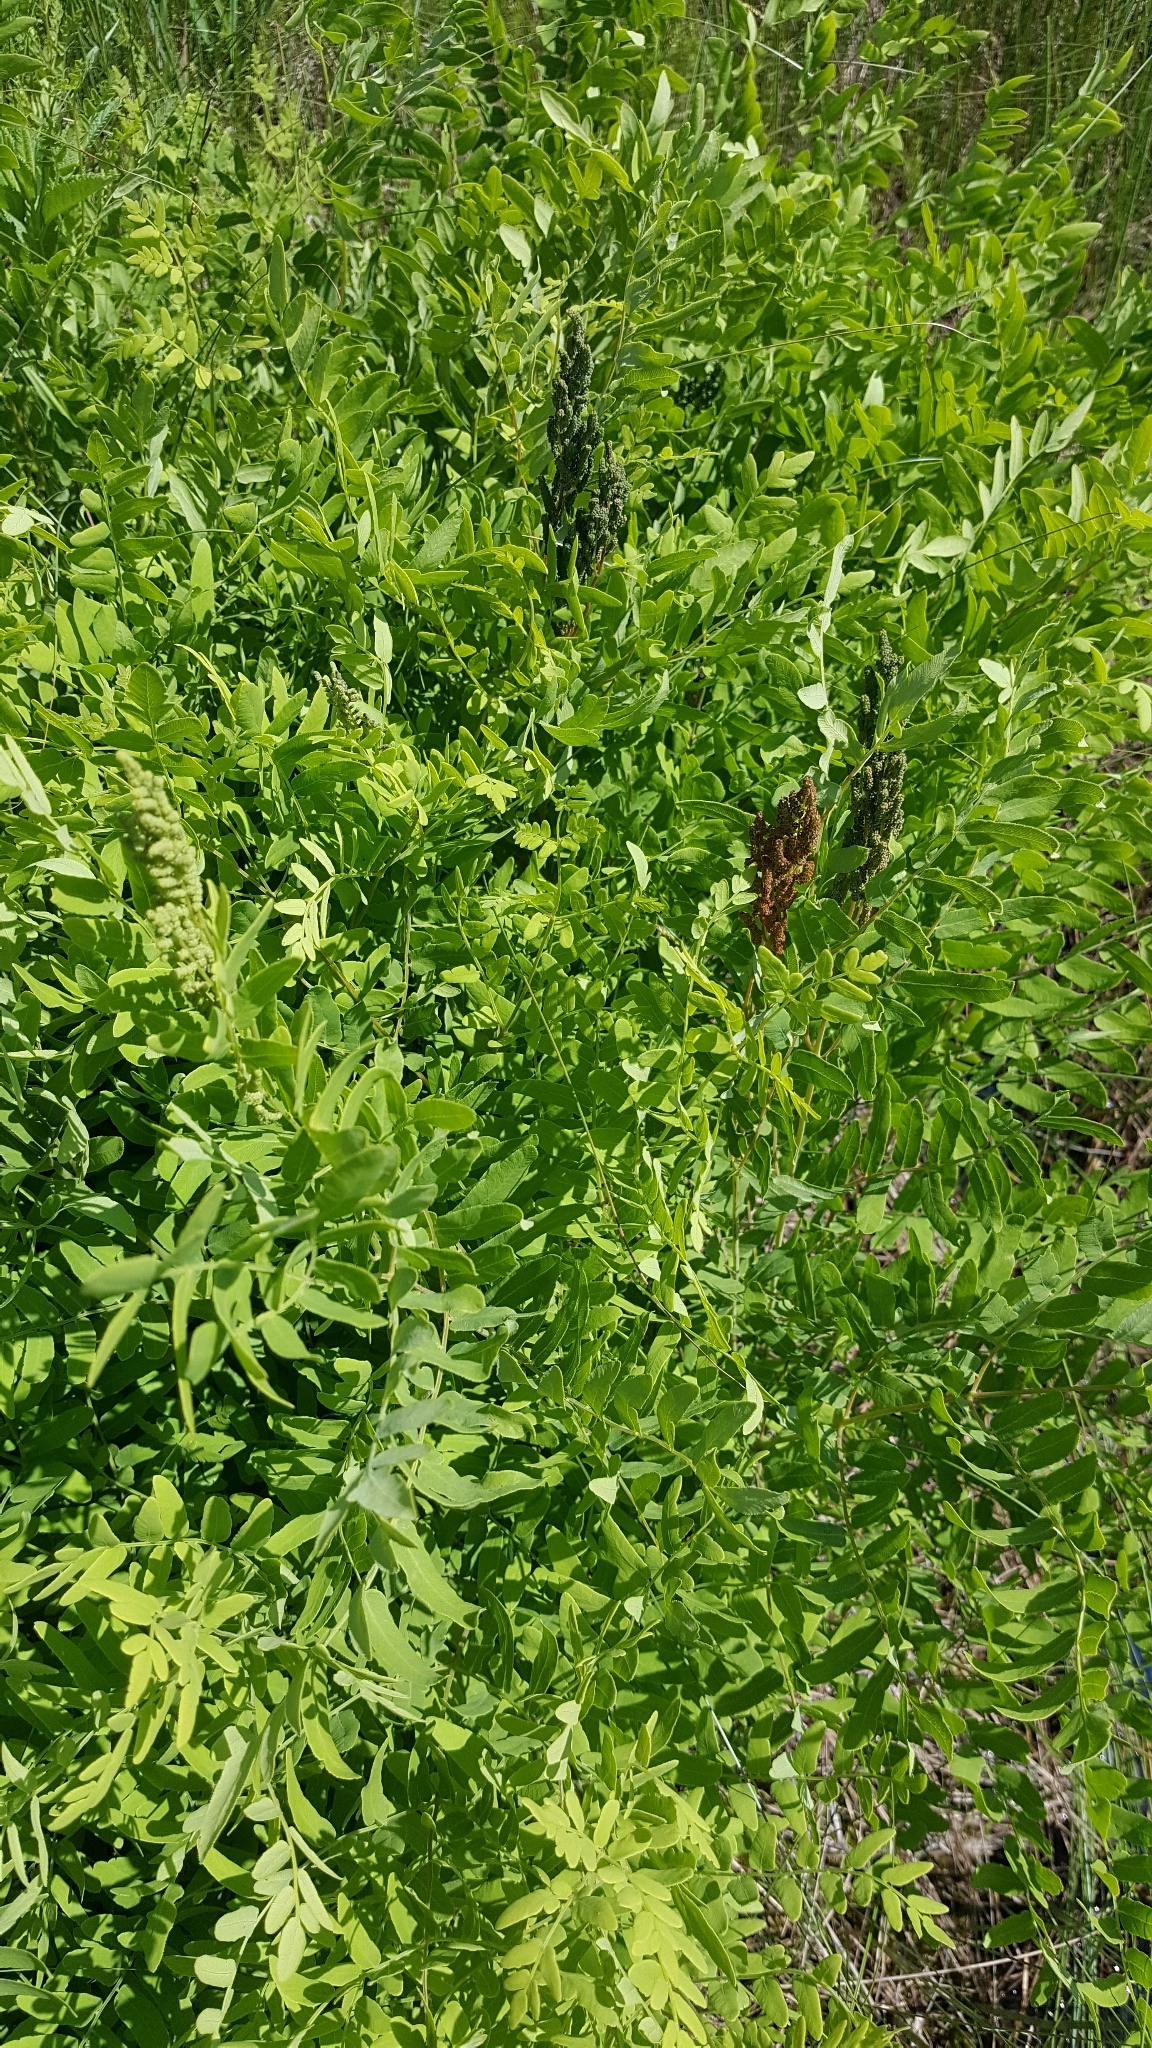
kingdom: Plantae
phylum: Tracheophyta
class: Polypodiopsida
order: Osmundales
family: Osmundaceae
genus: Osmunda
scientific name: Osmunda spectabilis
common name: American royal fern
